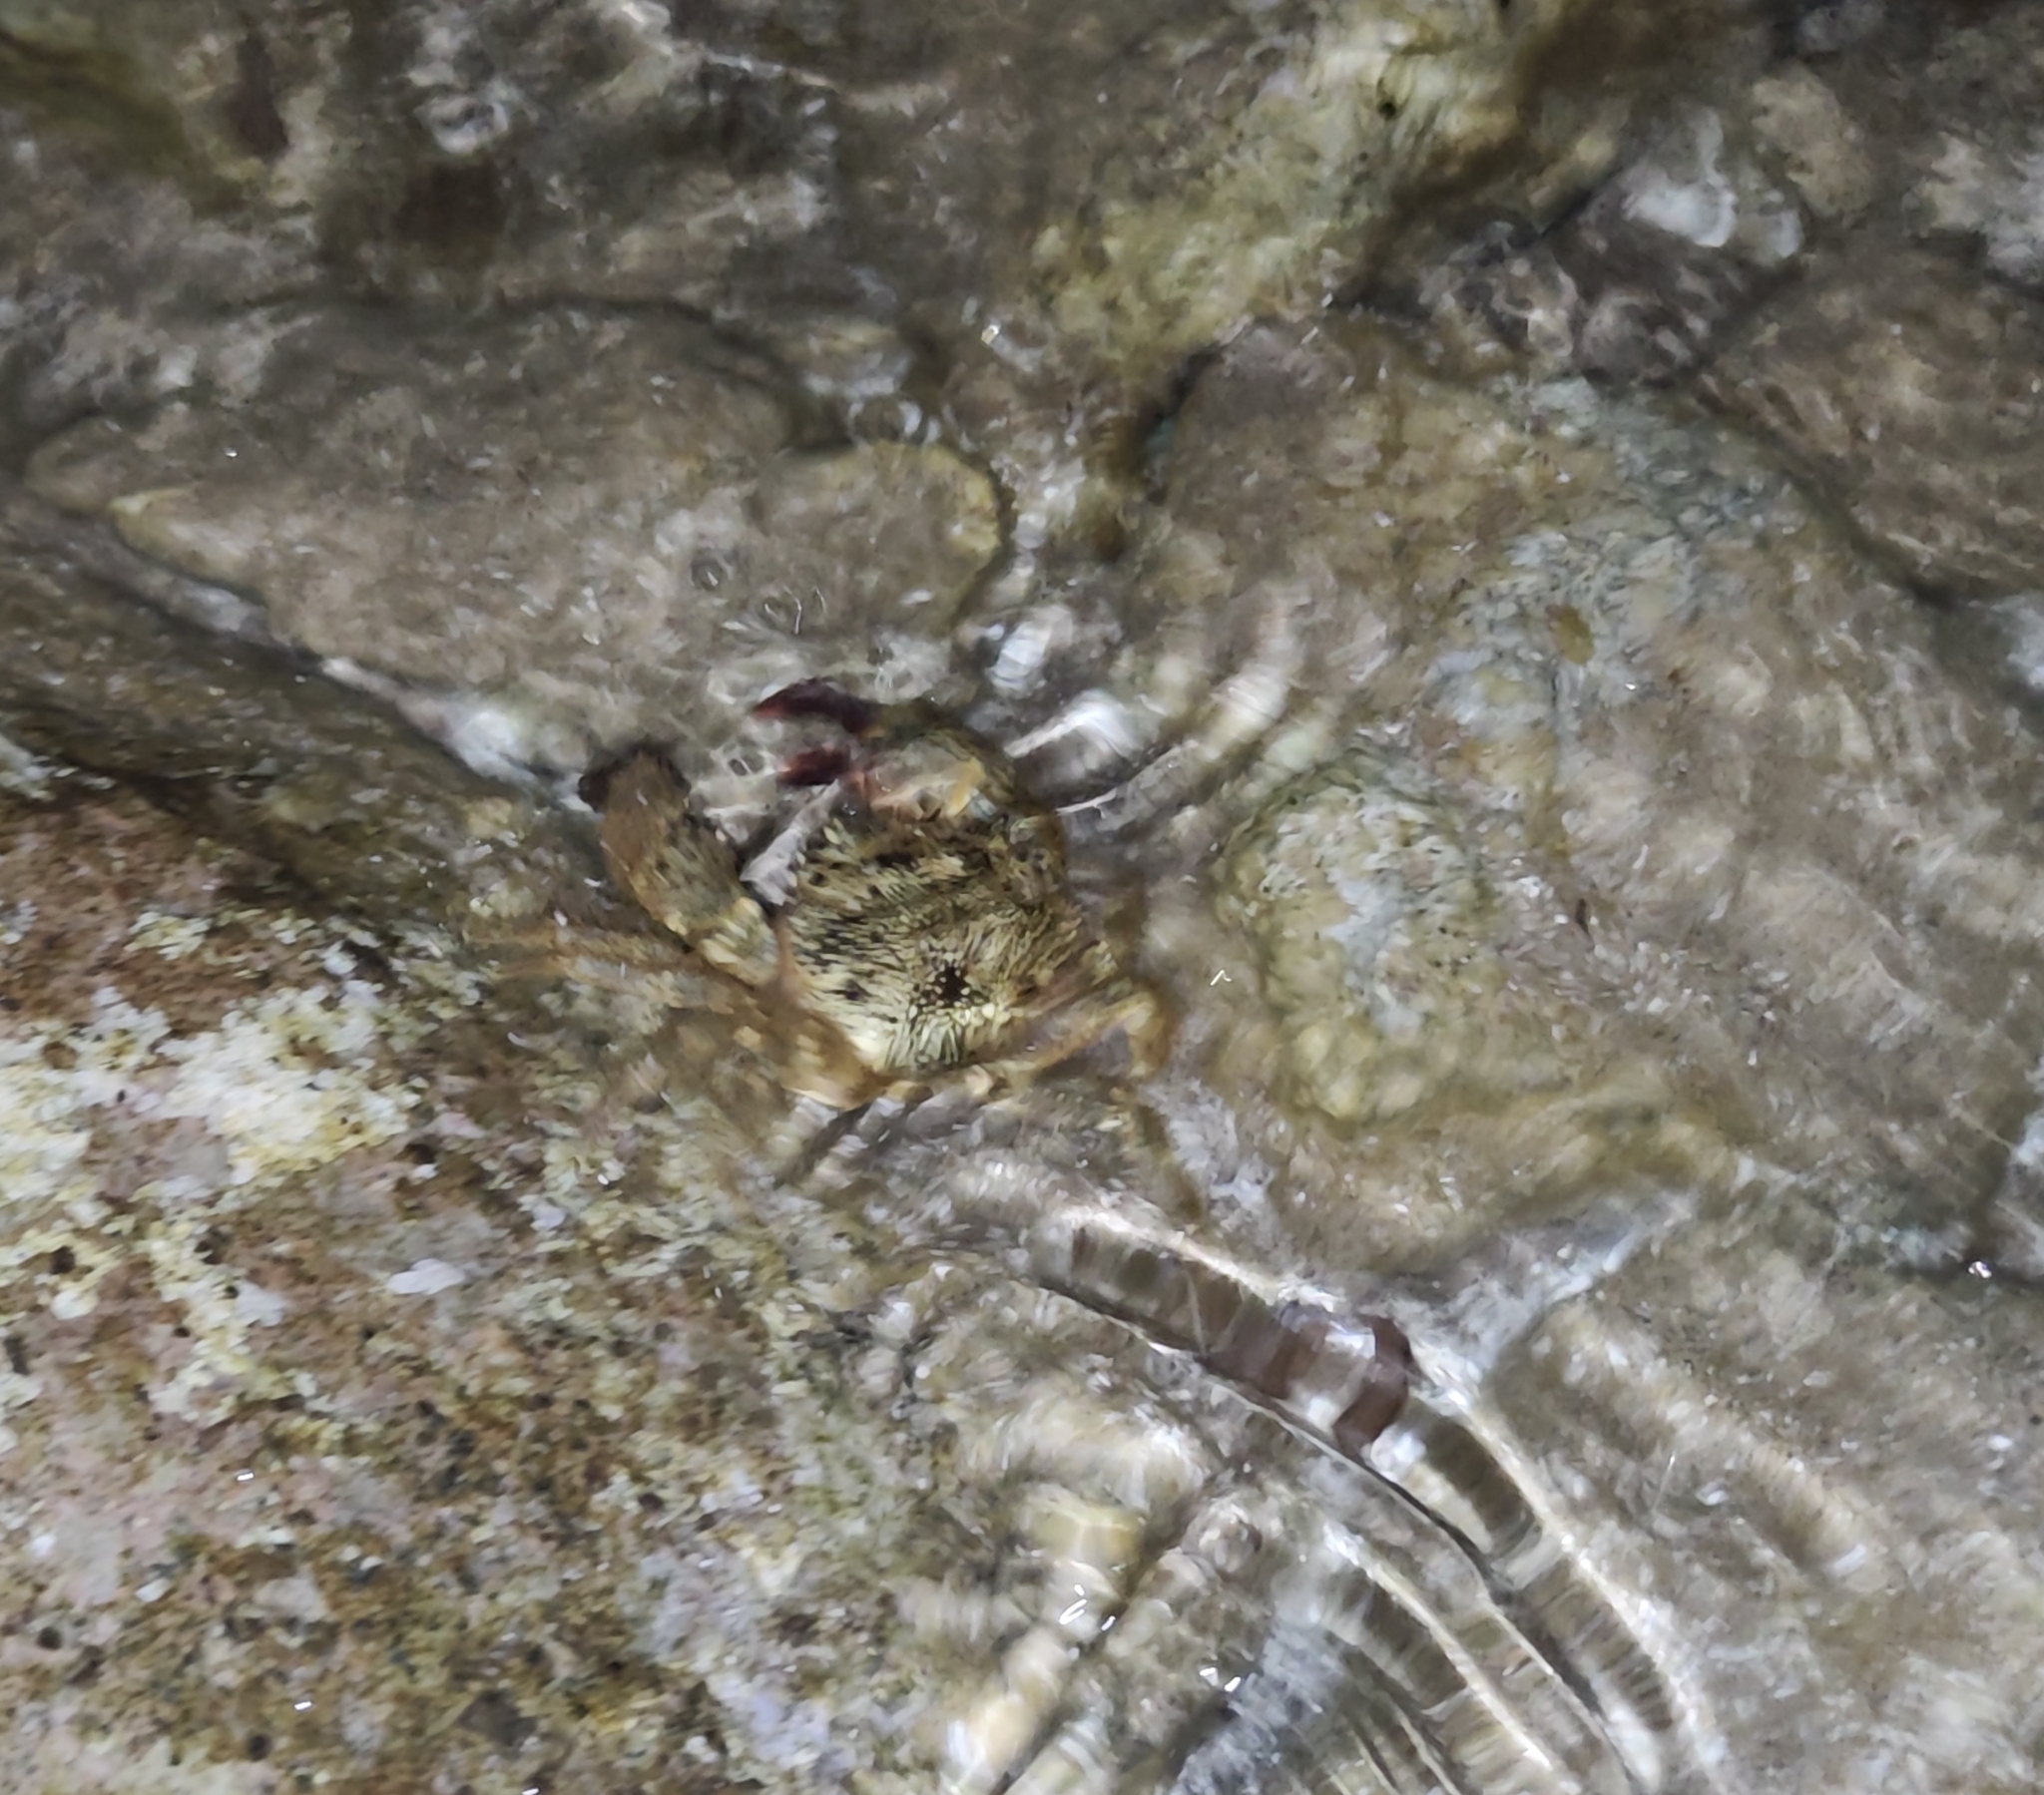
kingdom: Animalia
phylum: Arthropoda
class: Malacostraca
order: Decapoda
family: Eriphiidae
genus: Eriphia
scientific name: Eriphia verrucosa
